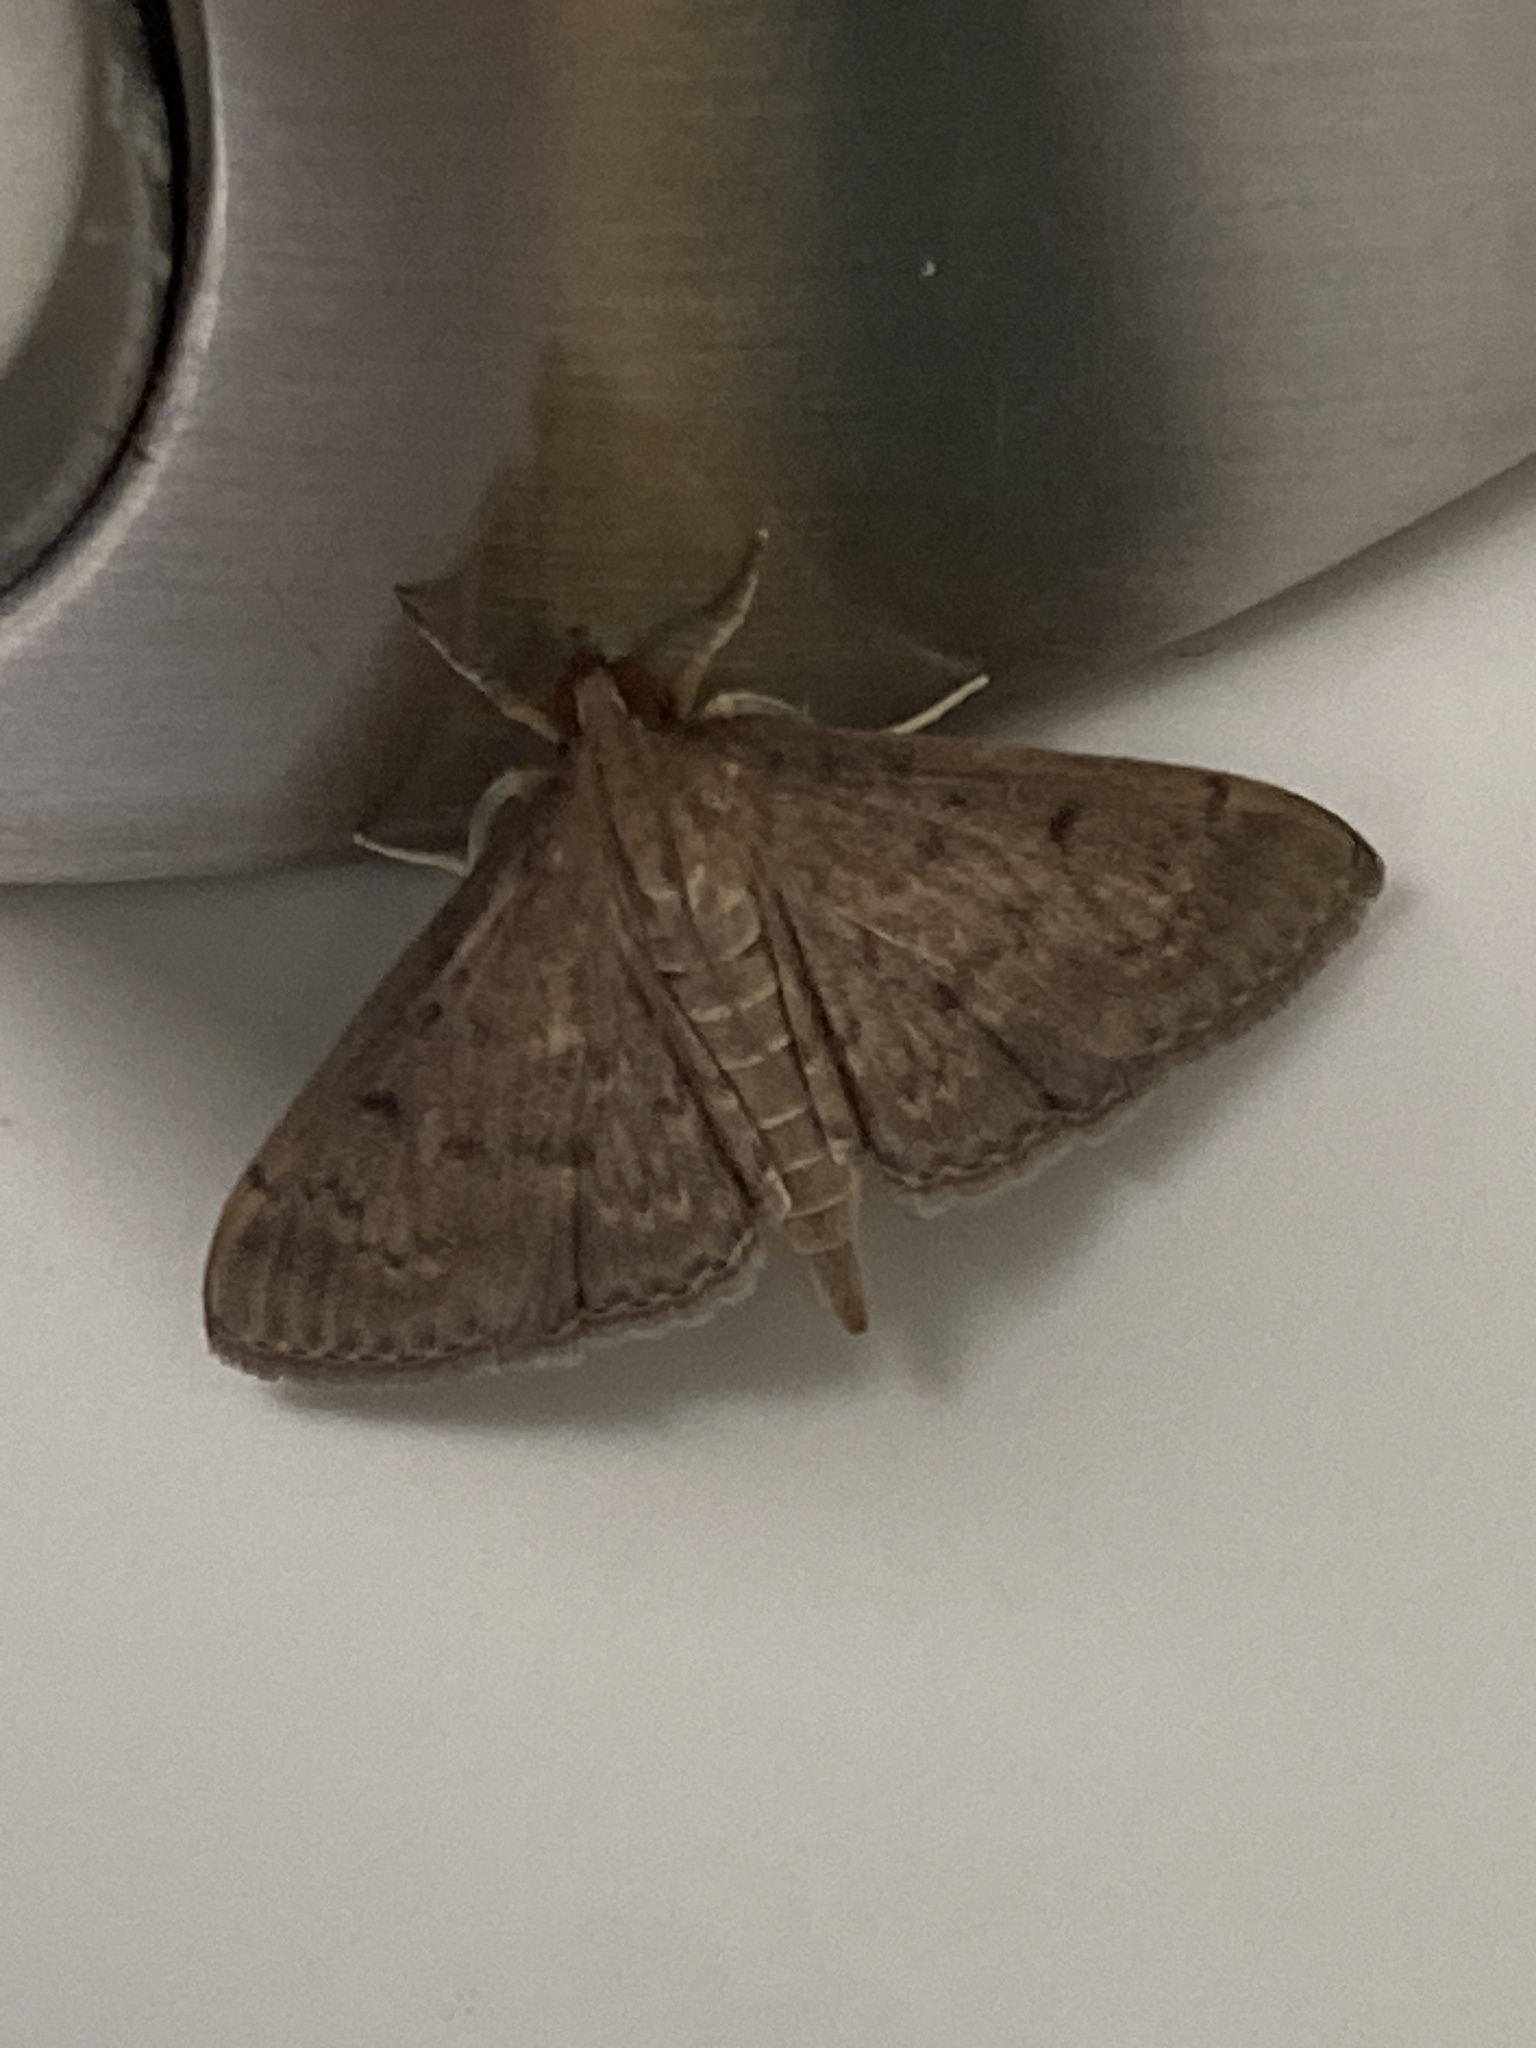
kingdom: Animalia
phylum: Arthropoda
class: Insecta
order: Lepidoptera
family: Crambidae
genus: Herpetogramma
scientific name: Herpetogramma licarsisalis
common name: Grass webworm
